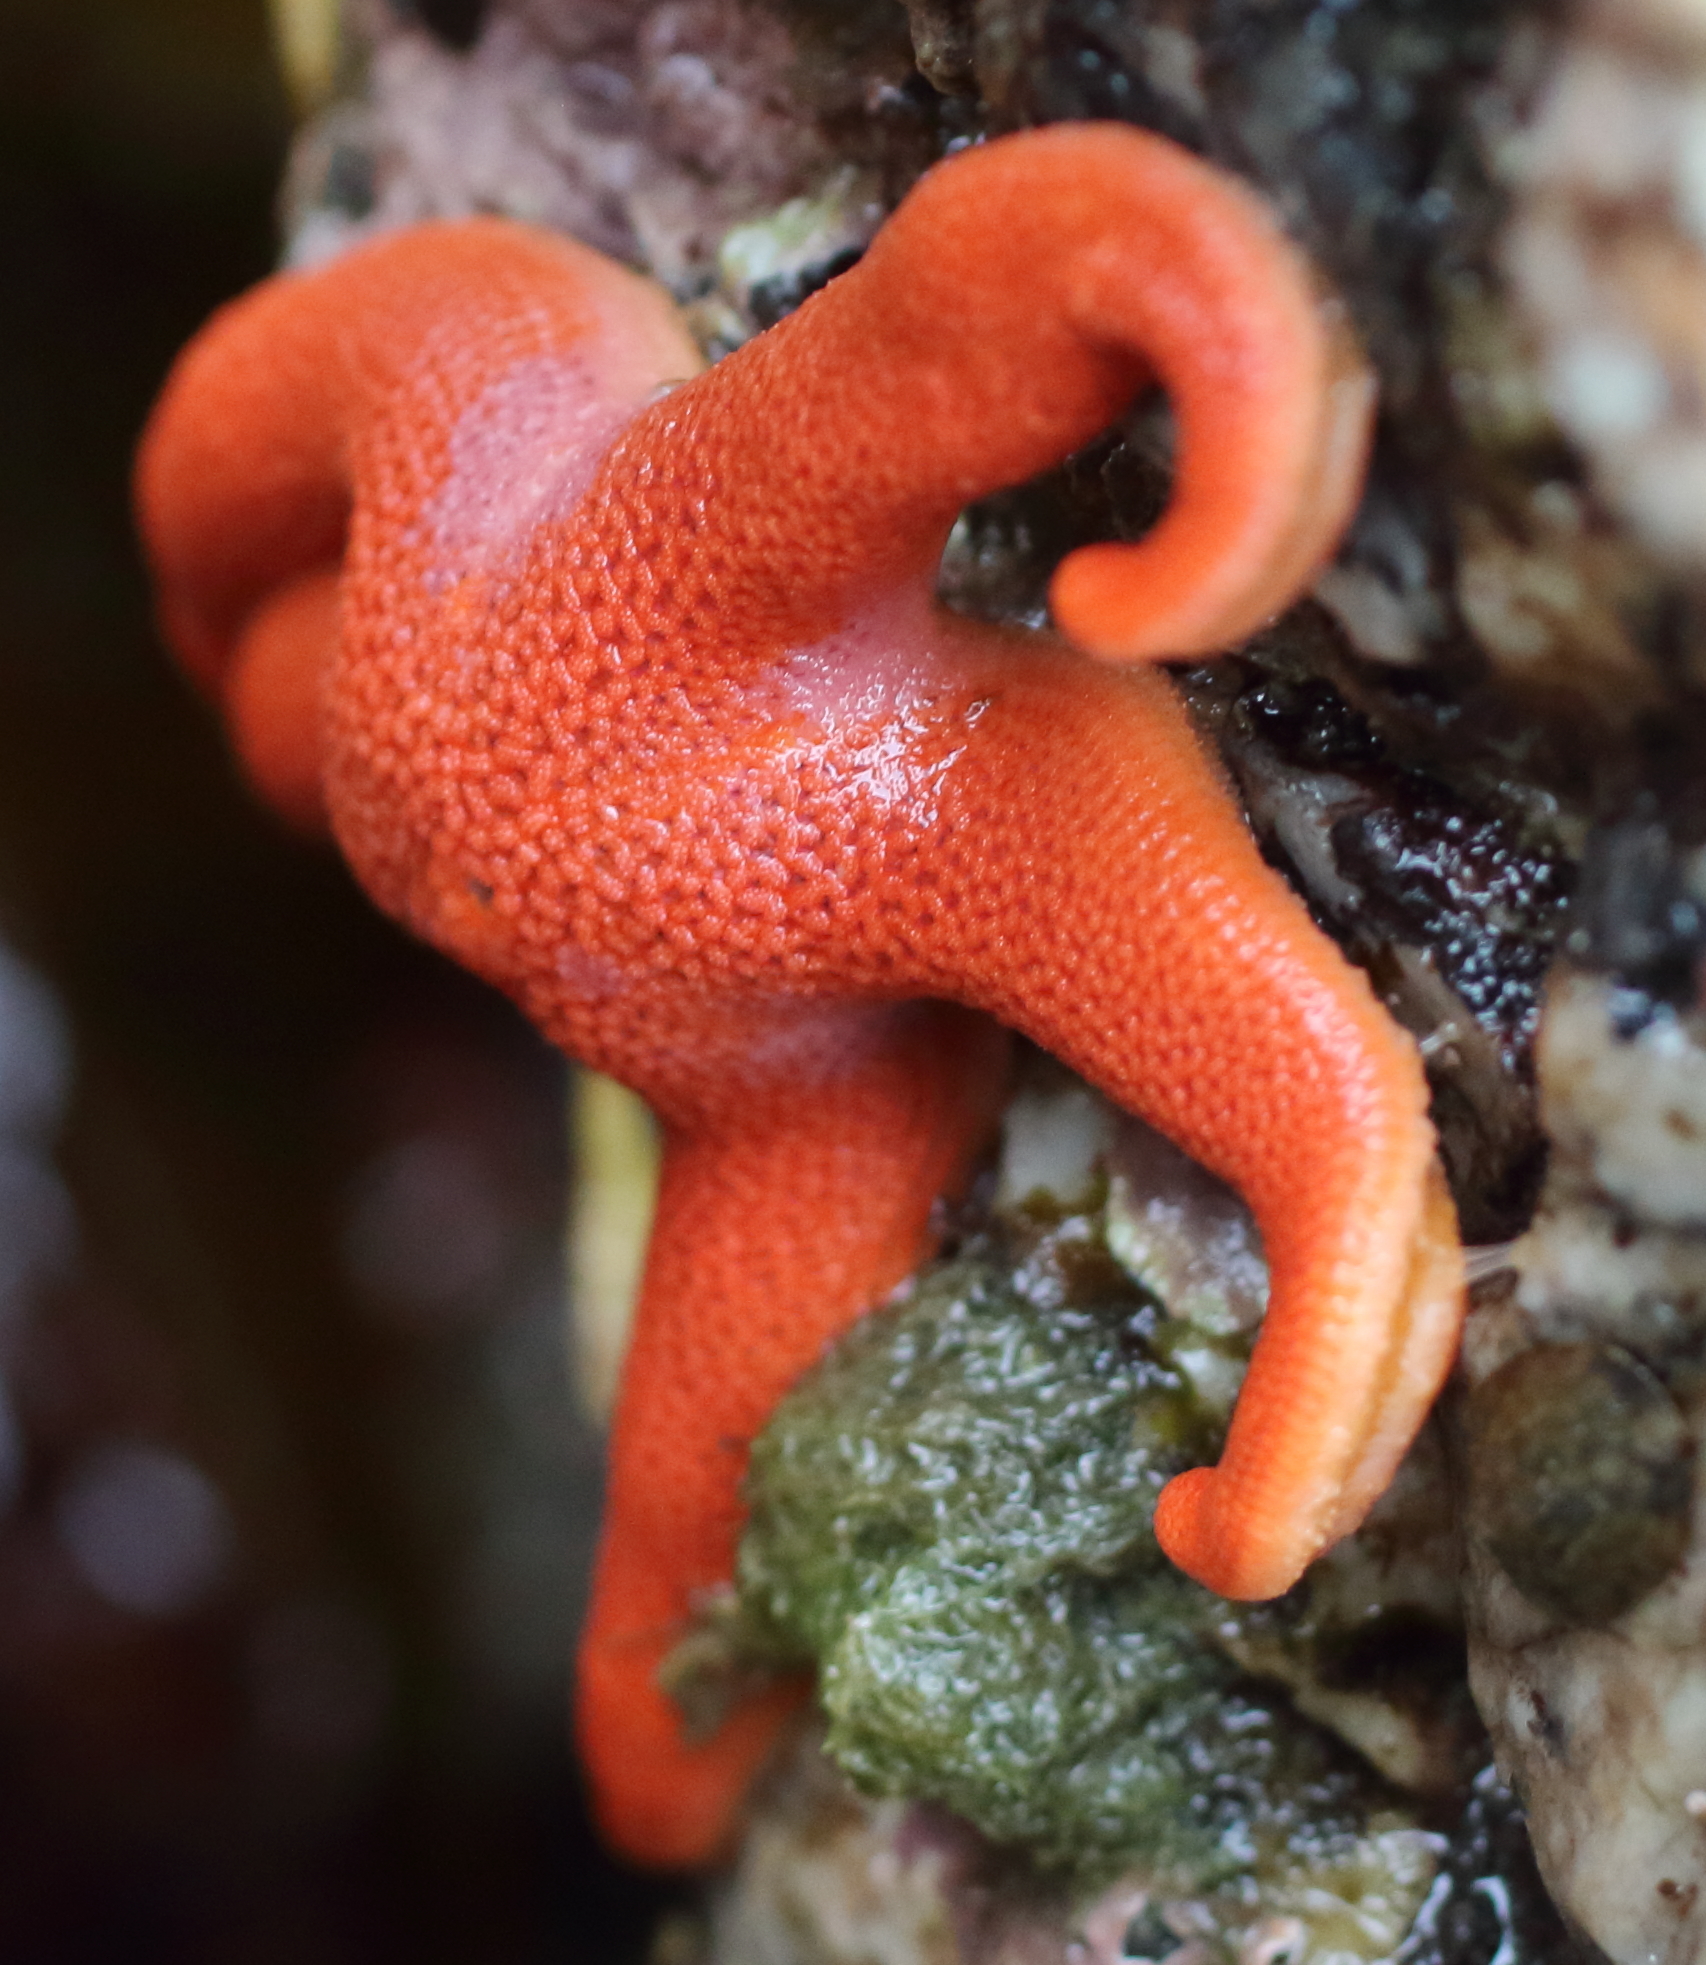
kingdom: Animalia
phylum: Echinodermata
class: Asteroidea
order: Spinulosida
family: Echinasteridae
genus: Henricia
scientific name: Henricia leviuscula
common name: Pacific blood star
